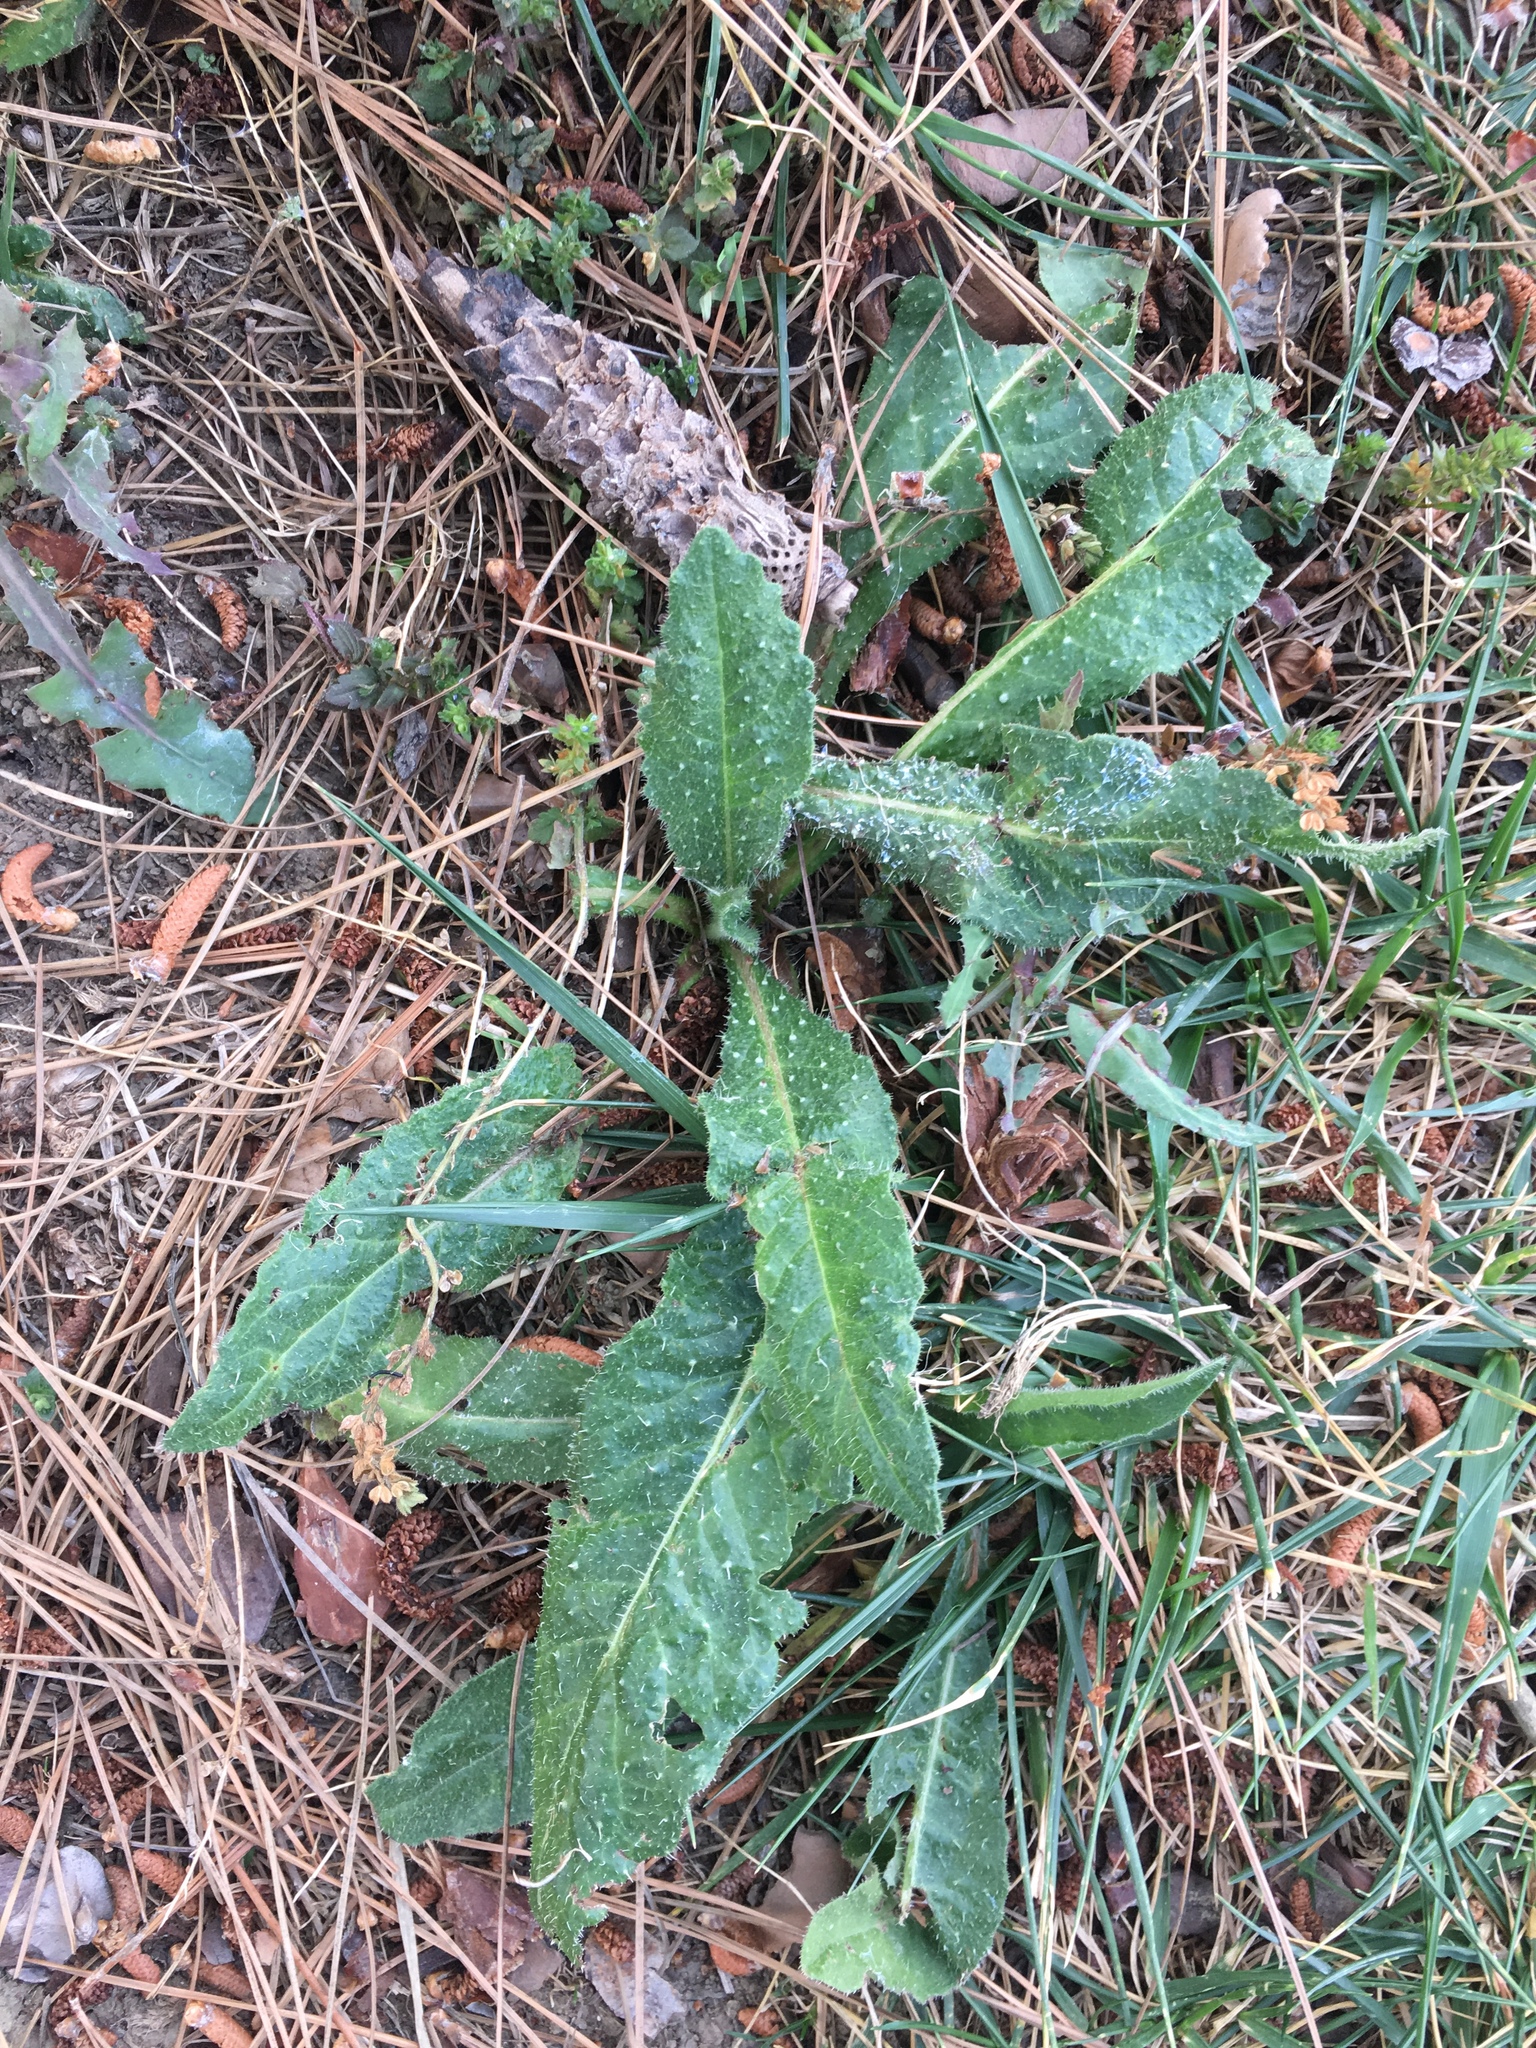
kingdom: Plantae
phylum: Tracheophyta
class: Magnoliopsida
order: Asterales
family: Asteraceae
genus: Helminthotheca
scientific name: Helminthotheca echioides
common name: Ox-tongue
